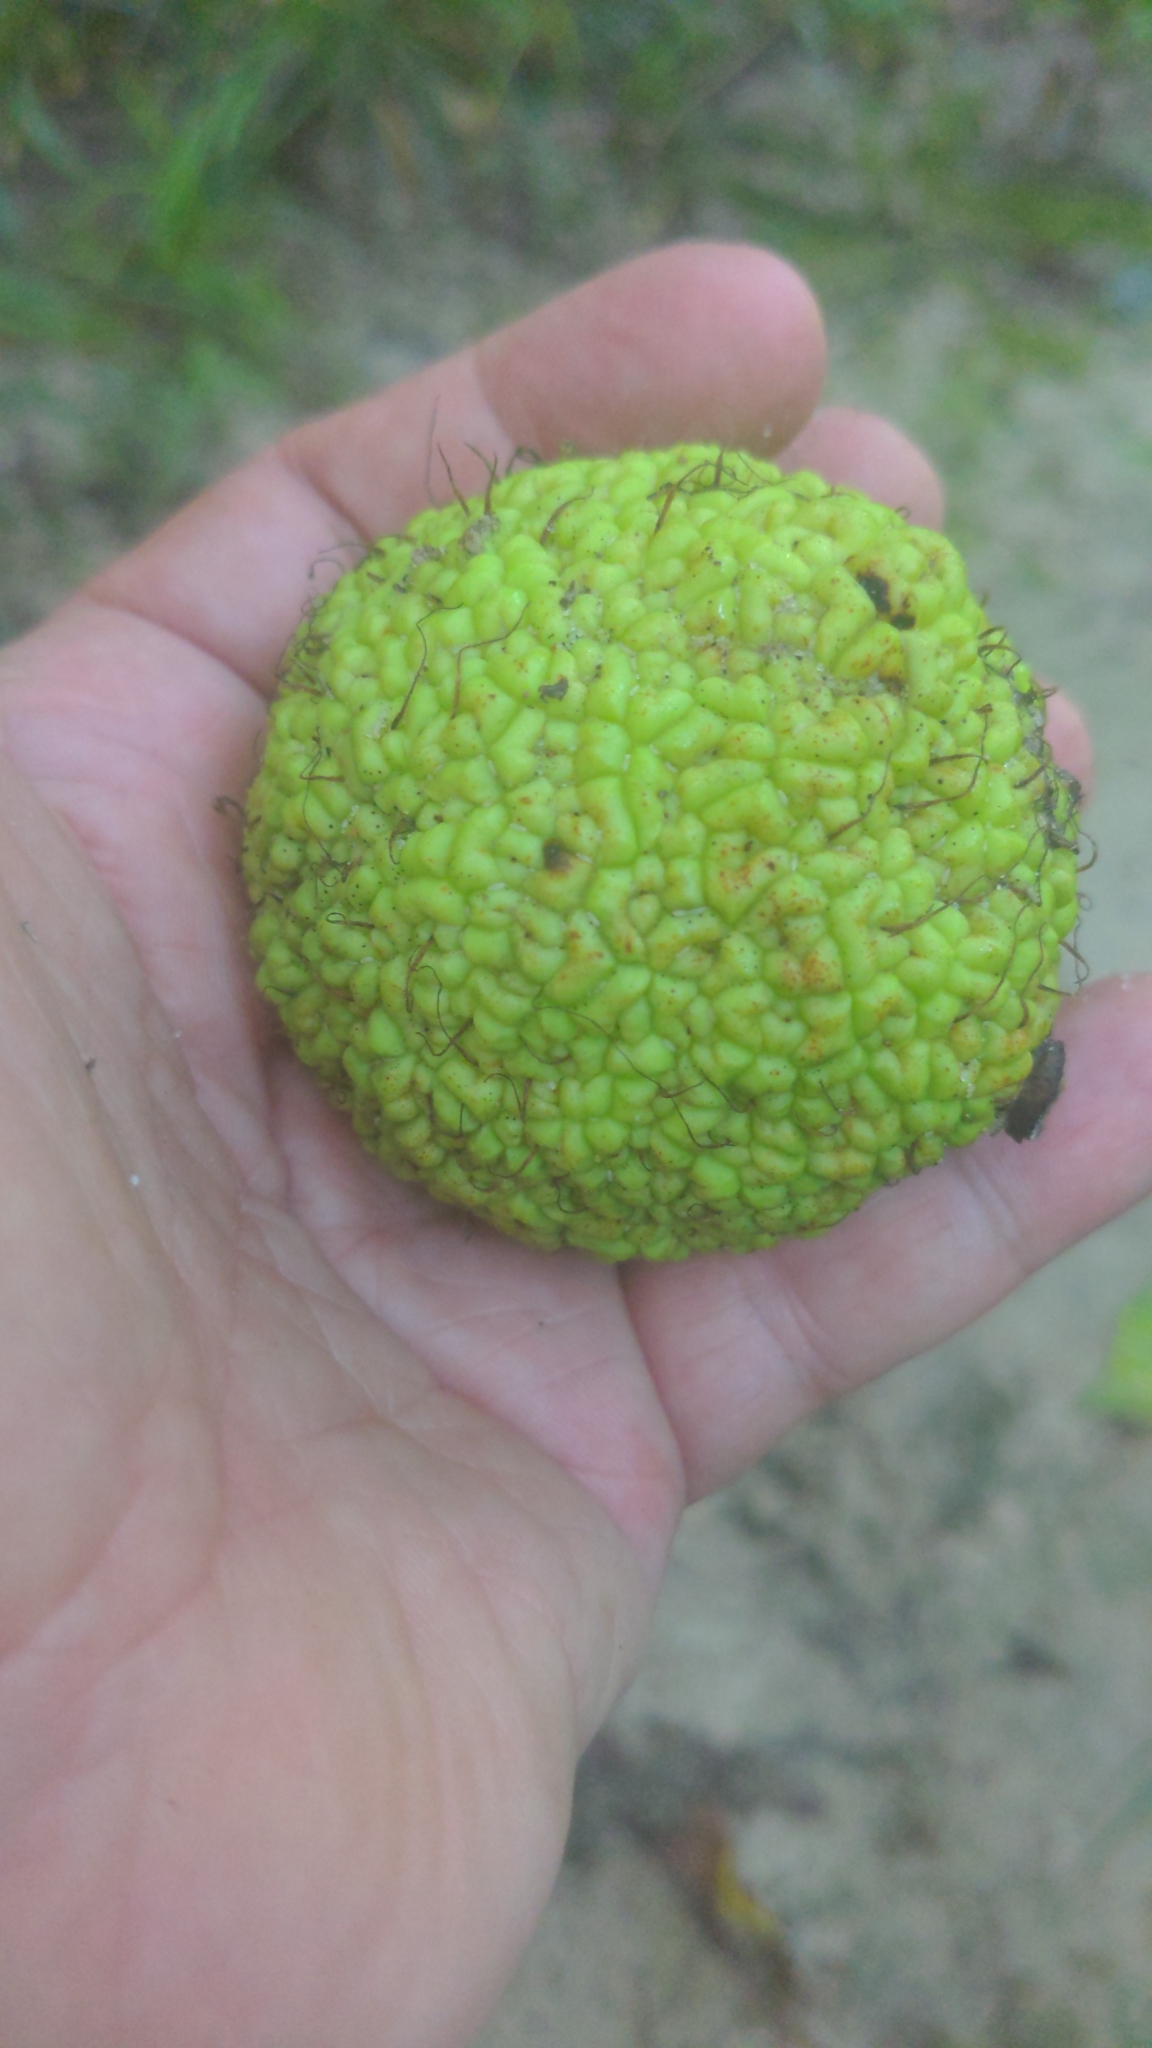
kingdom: Plantae
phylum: Tracheophyta
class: Magnoliopsida
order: Rosales
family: Moraceae
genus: Maclura
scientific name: Maclura pomifera
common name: Osage-orange
